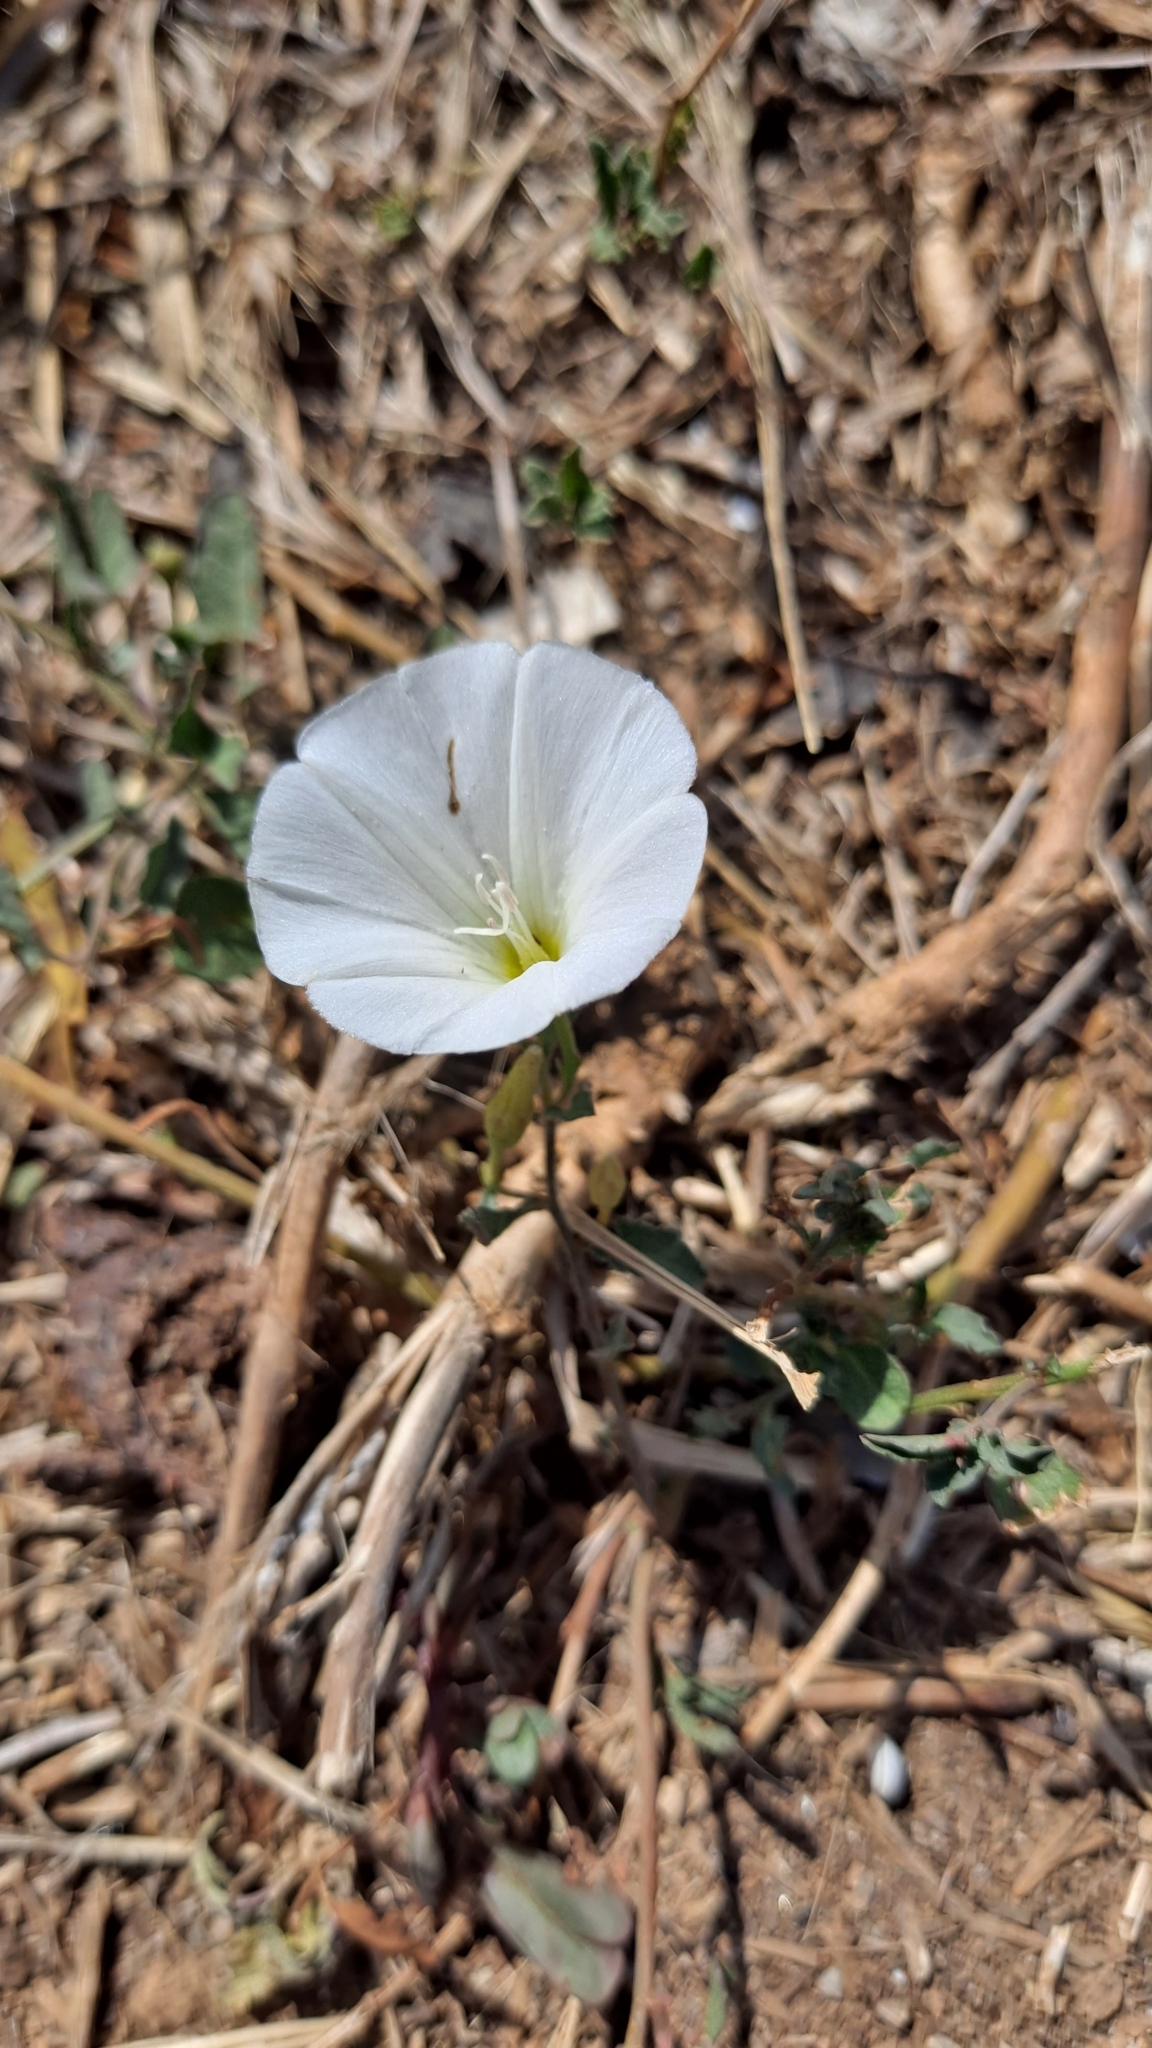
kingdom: Plantae
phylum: Tracheophyta
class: Magnoliopsida
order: Solanales
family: Convolvulaceae
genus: Convolvulus
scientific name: Convolvulus arvensis
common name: Field bindweed
